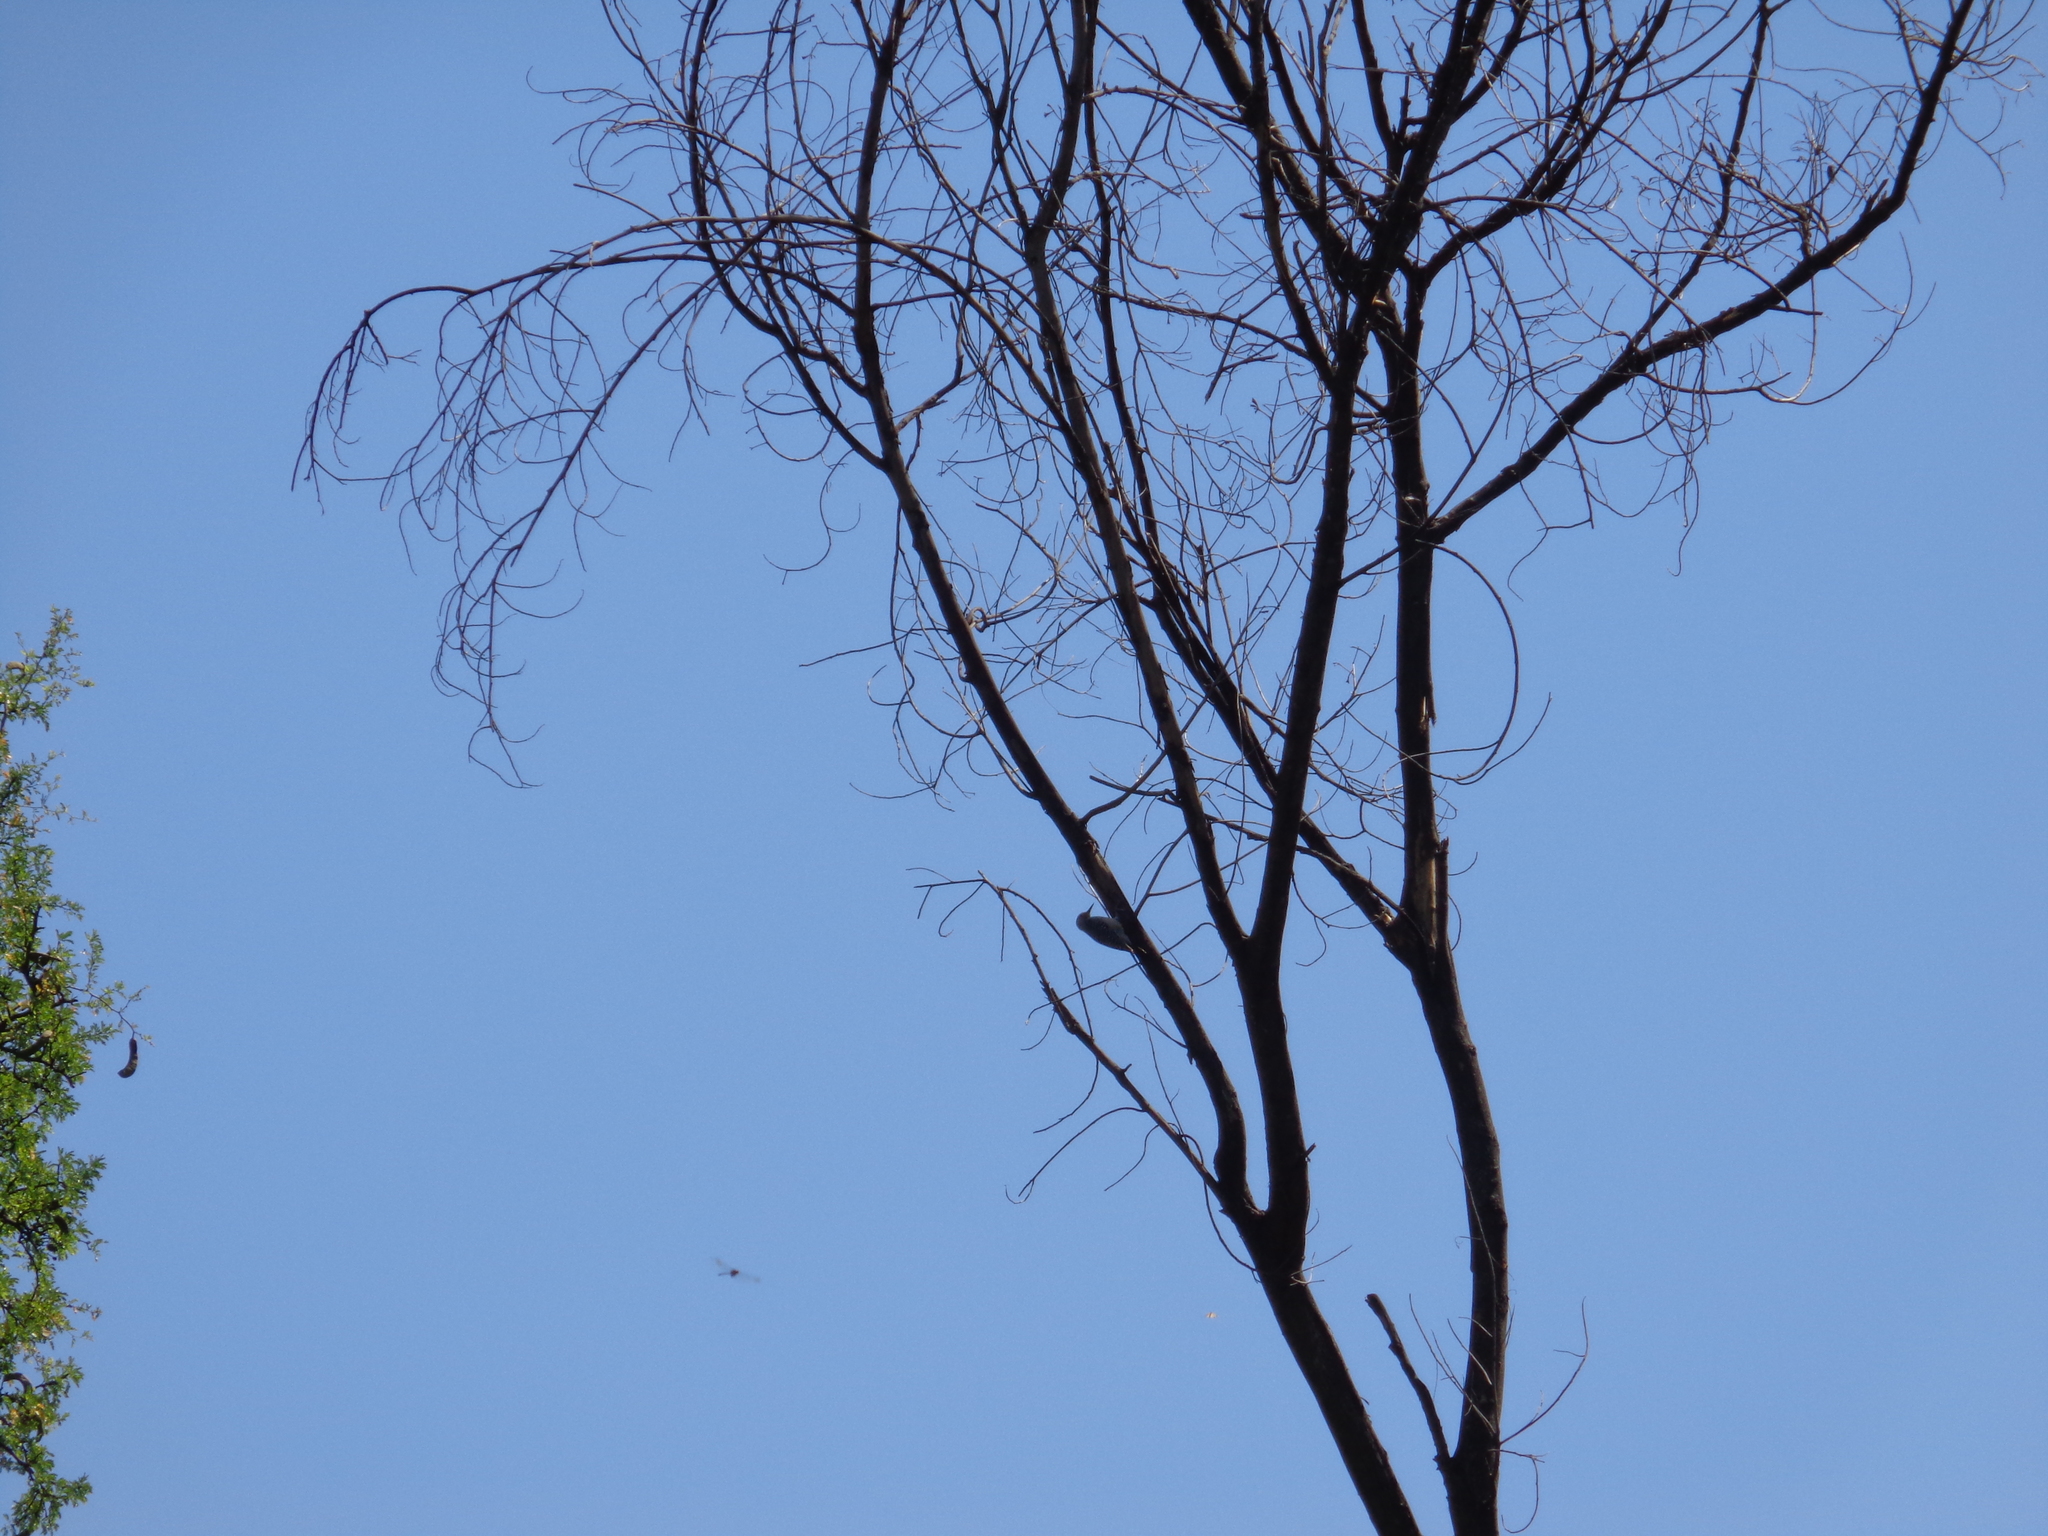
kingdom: Animalia
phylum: Chordata
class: Aves
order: Piciformes
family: Picidae
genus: Dryobates
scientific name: Dryobates scalaris
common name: Ladder-backed woodpecker
